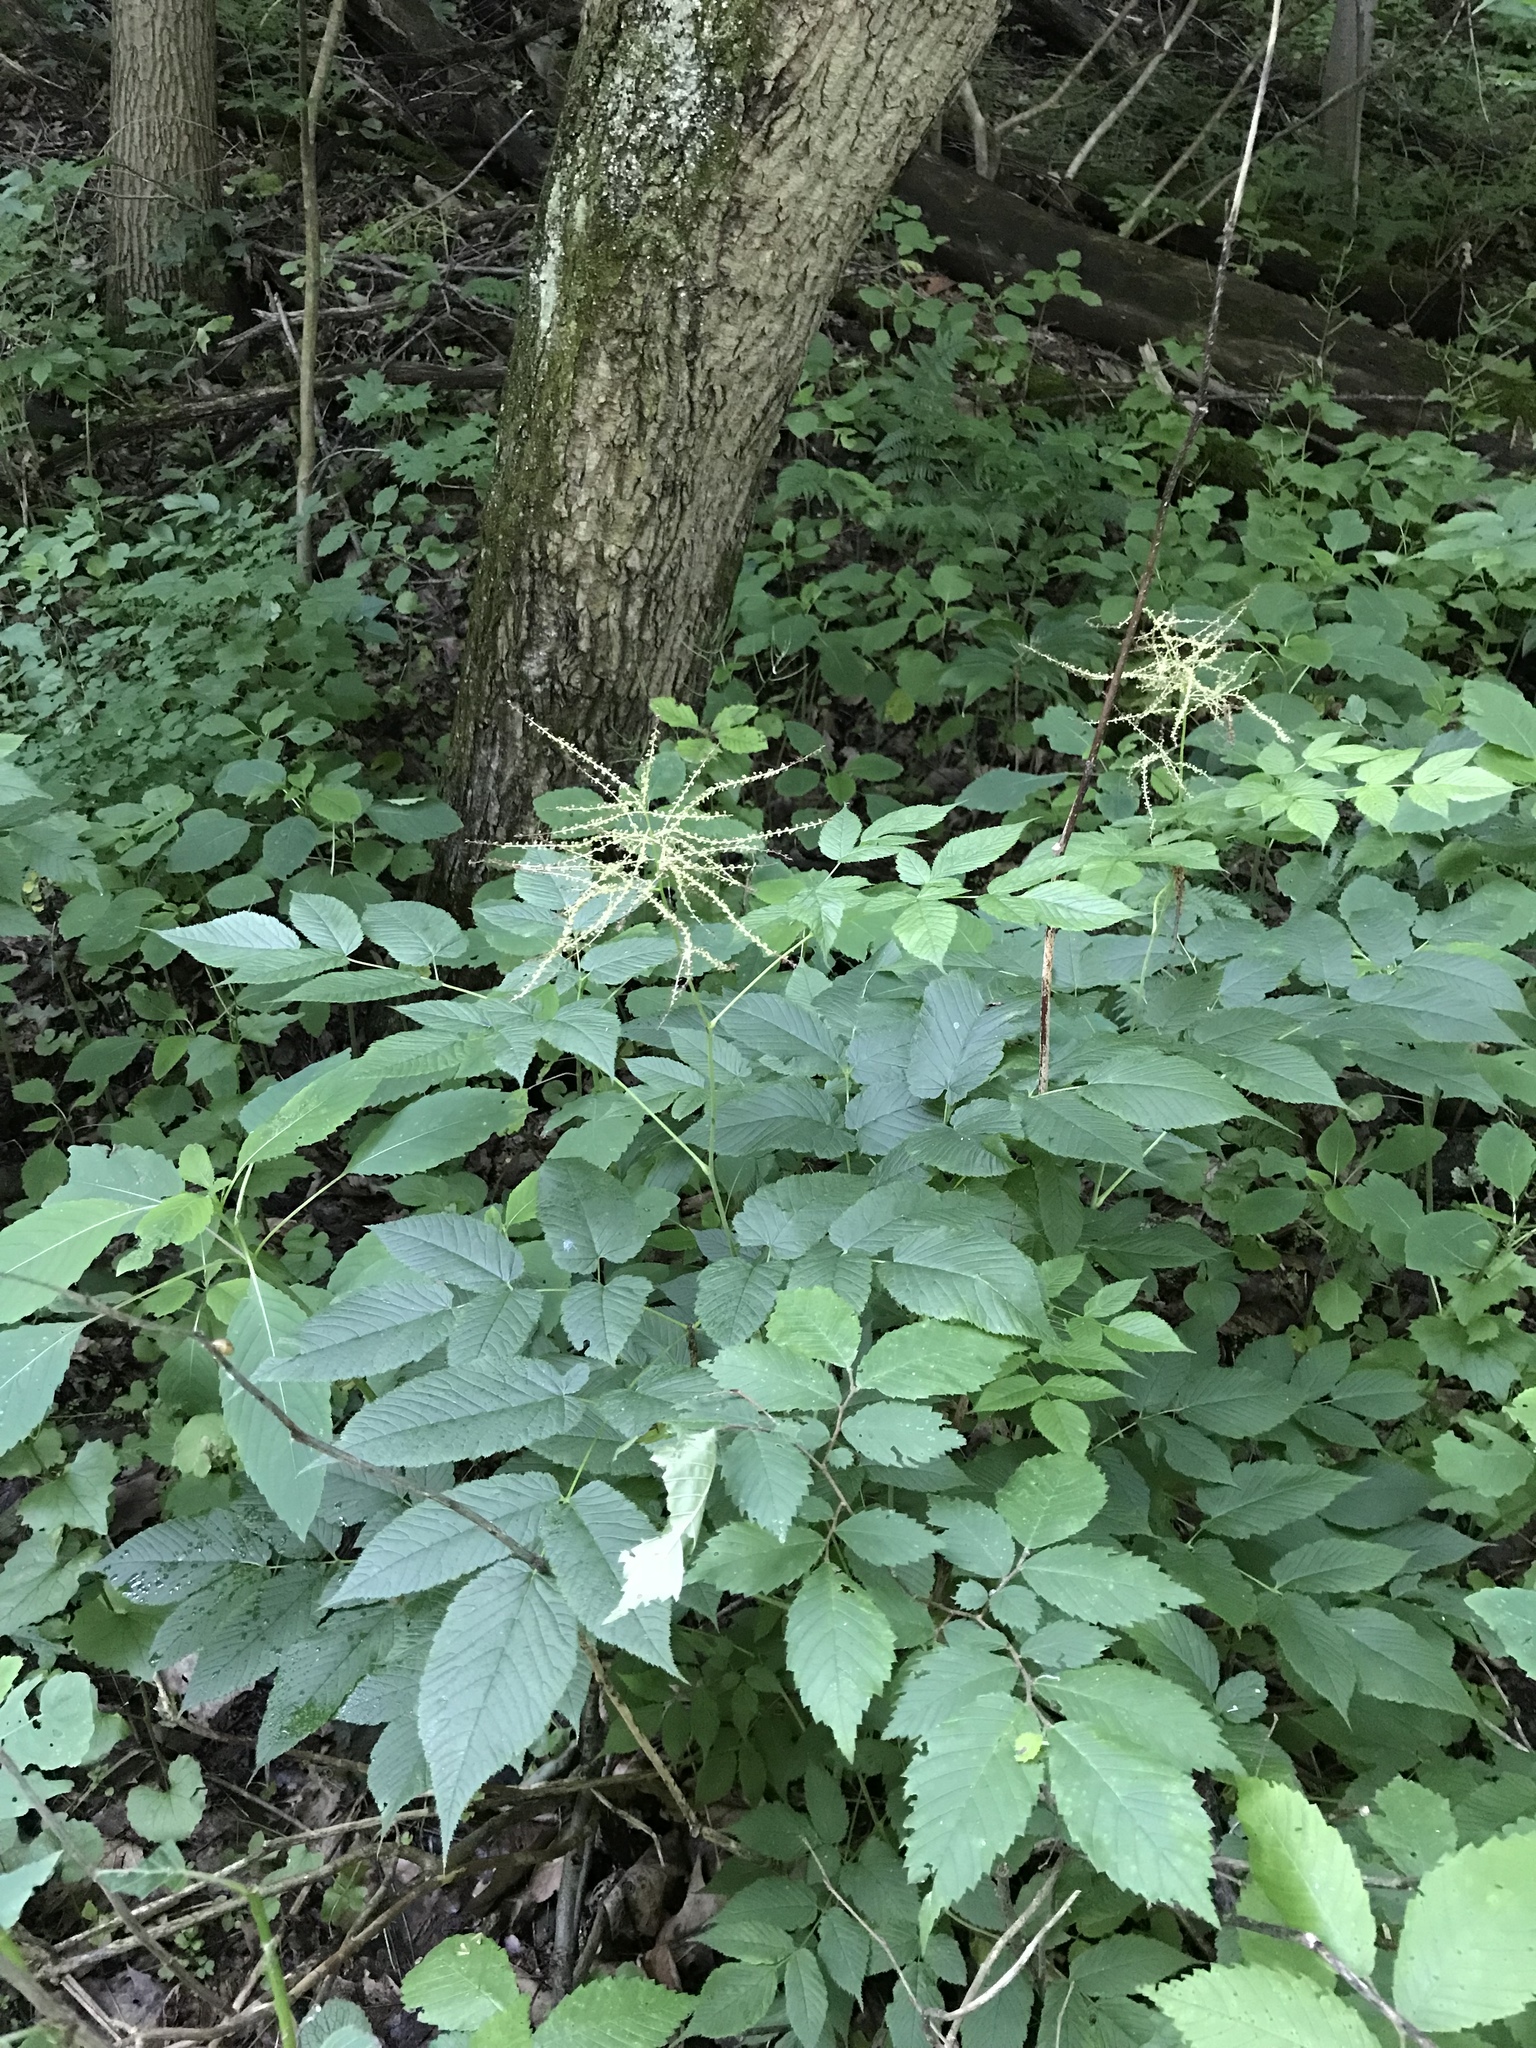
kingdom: Plantae
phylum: Tracheophyta
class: Magnoliopsida
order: Rosales
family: Rosaceae
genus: Aruncus
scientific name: Aruncus dioicus
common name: Buck's-beard
